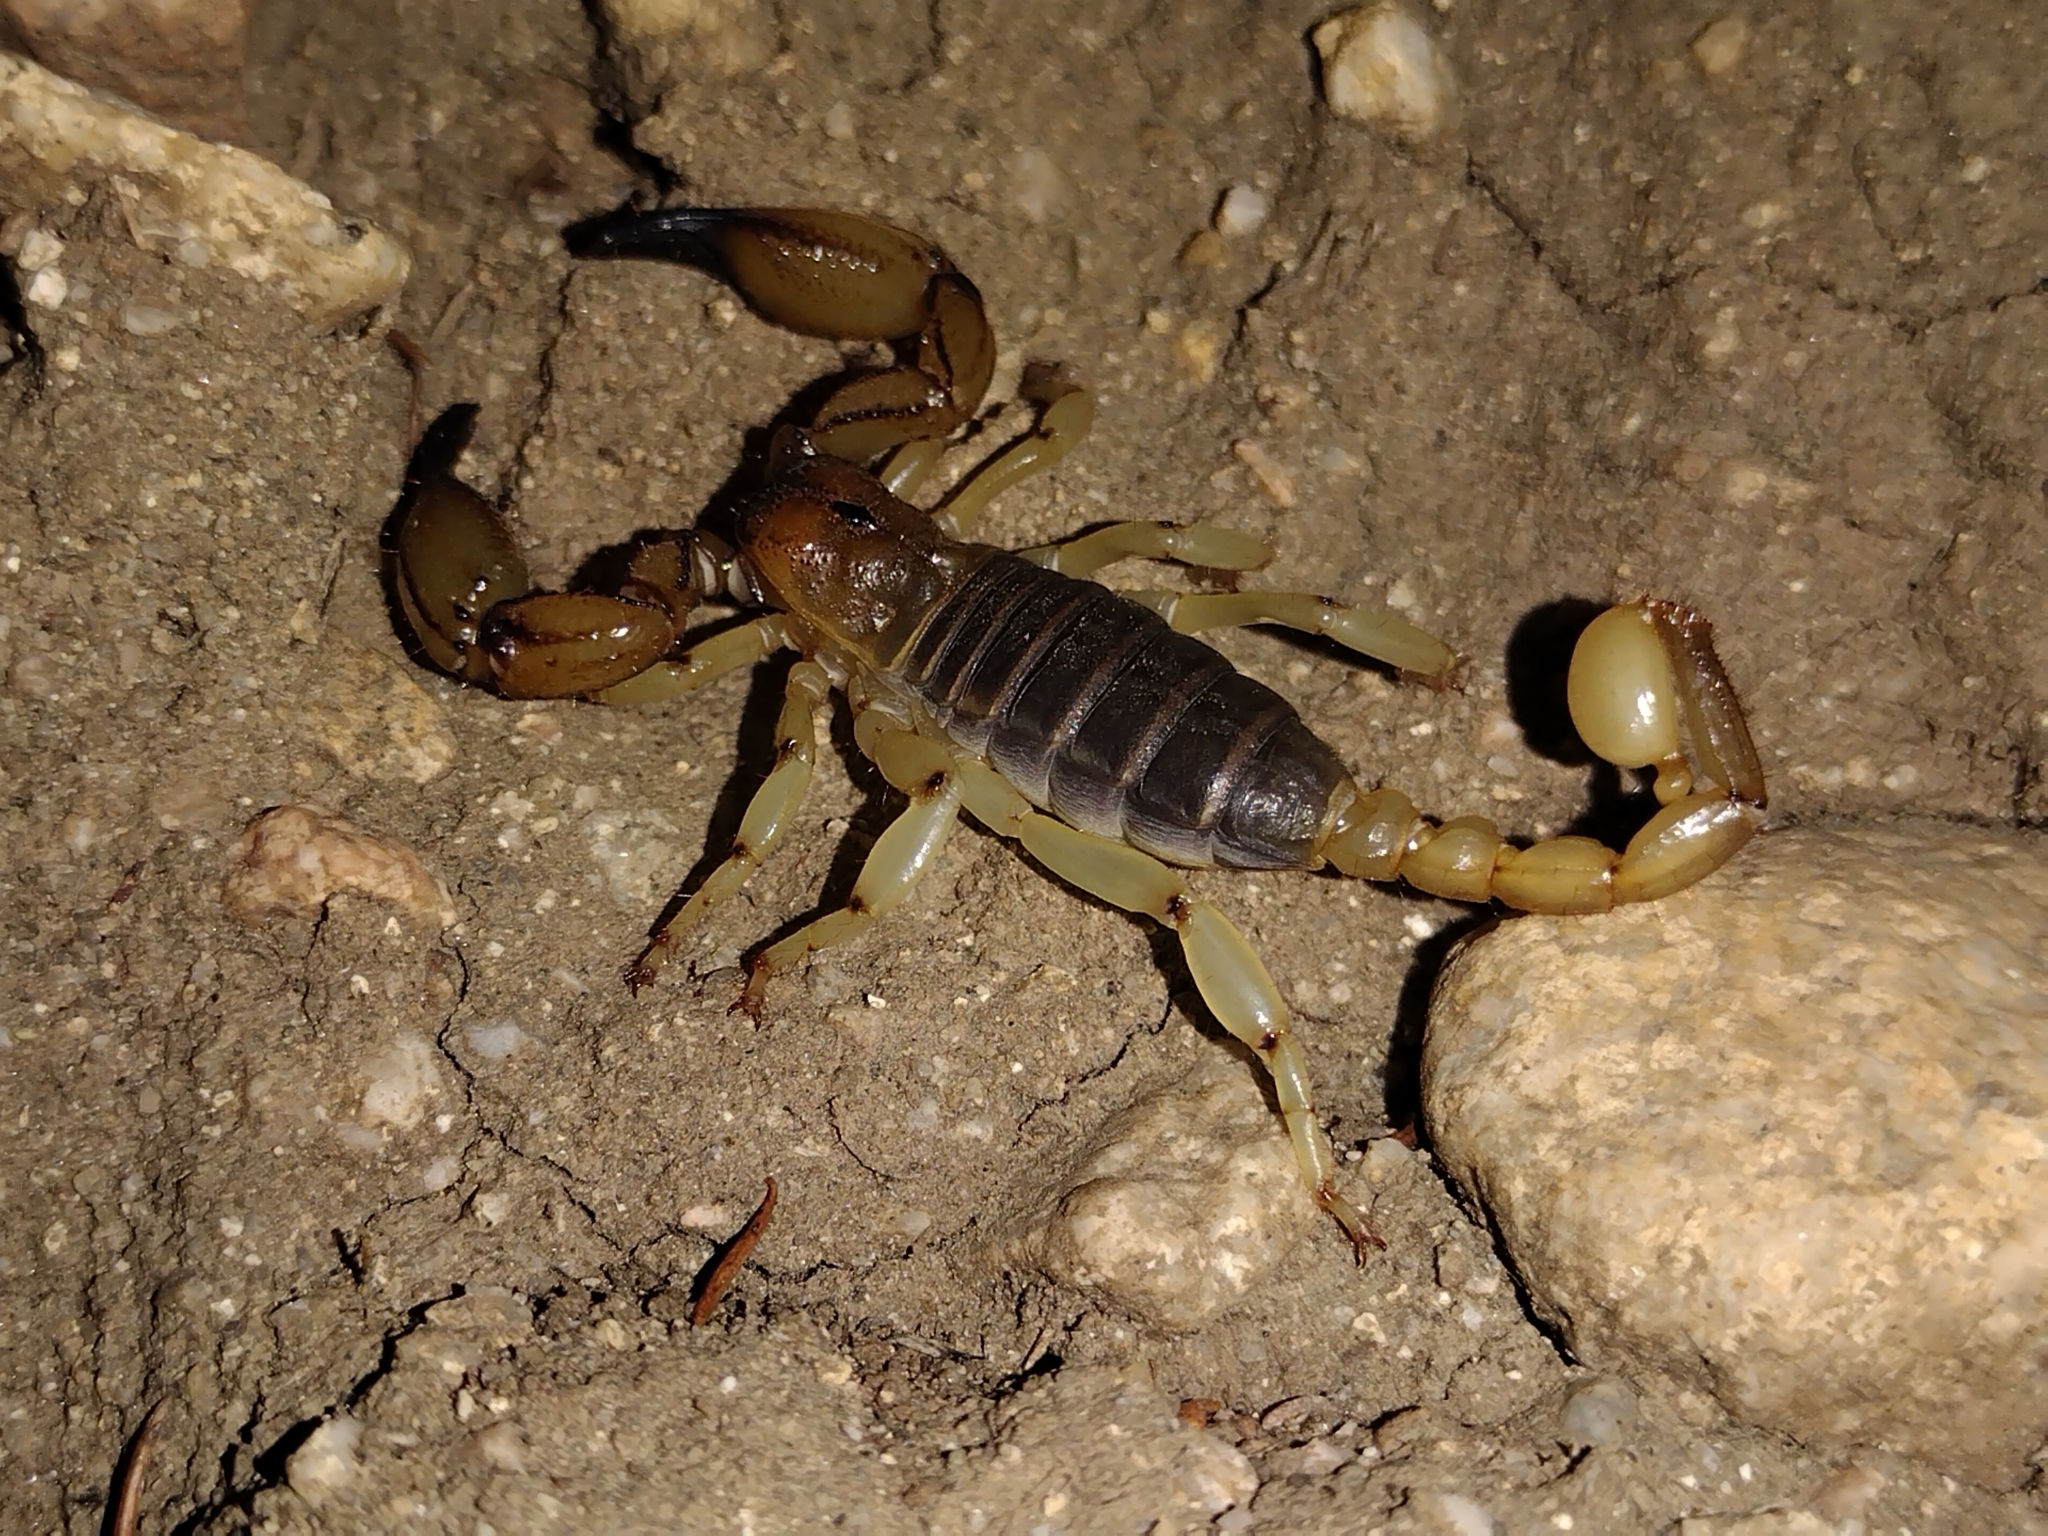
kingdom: Animalia
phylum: Arthropoda
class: Arachnida
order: Scorpiones
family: Chactidae
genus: Anuroctonus
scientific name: Anuroctonus pococki
